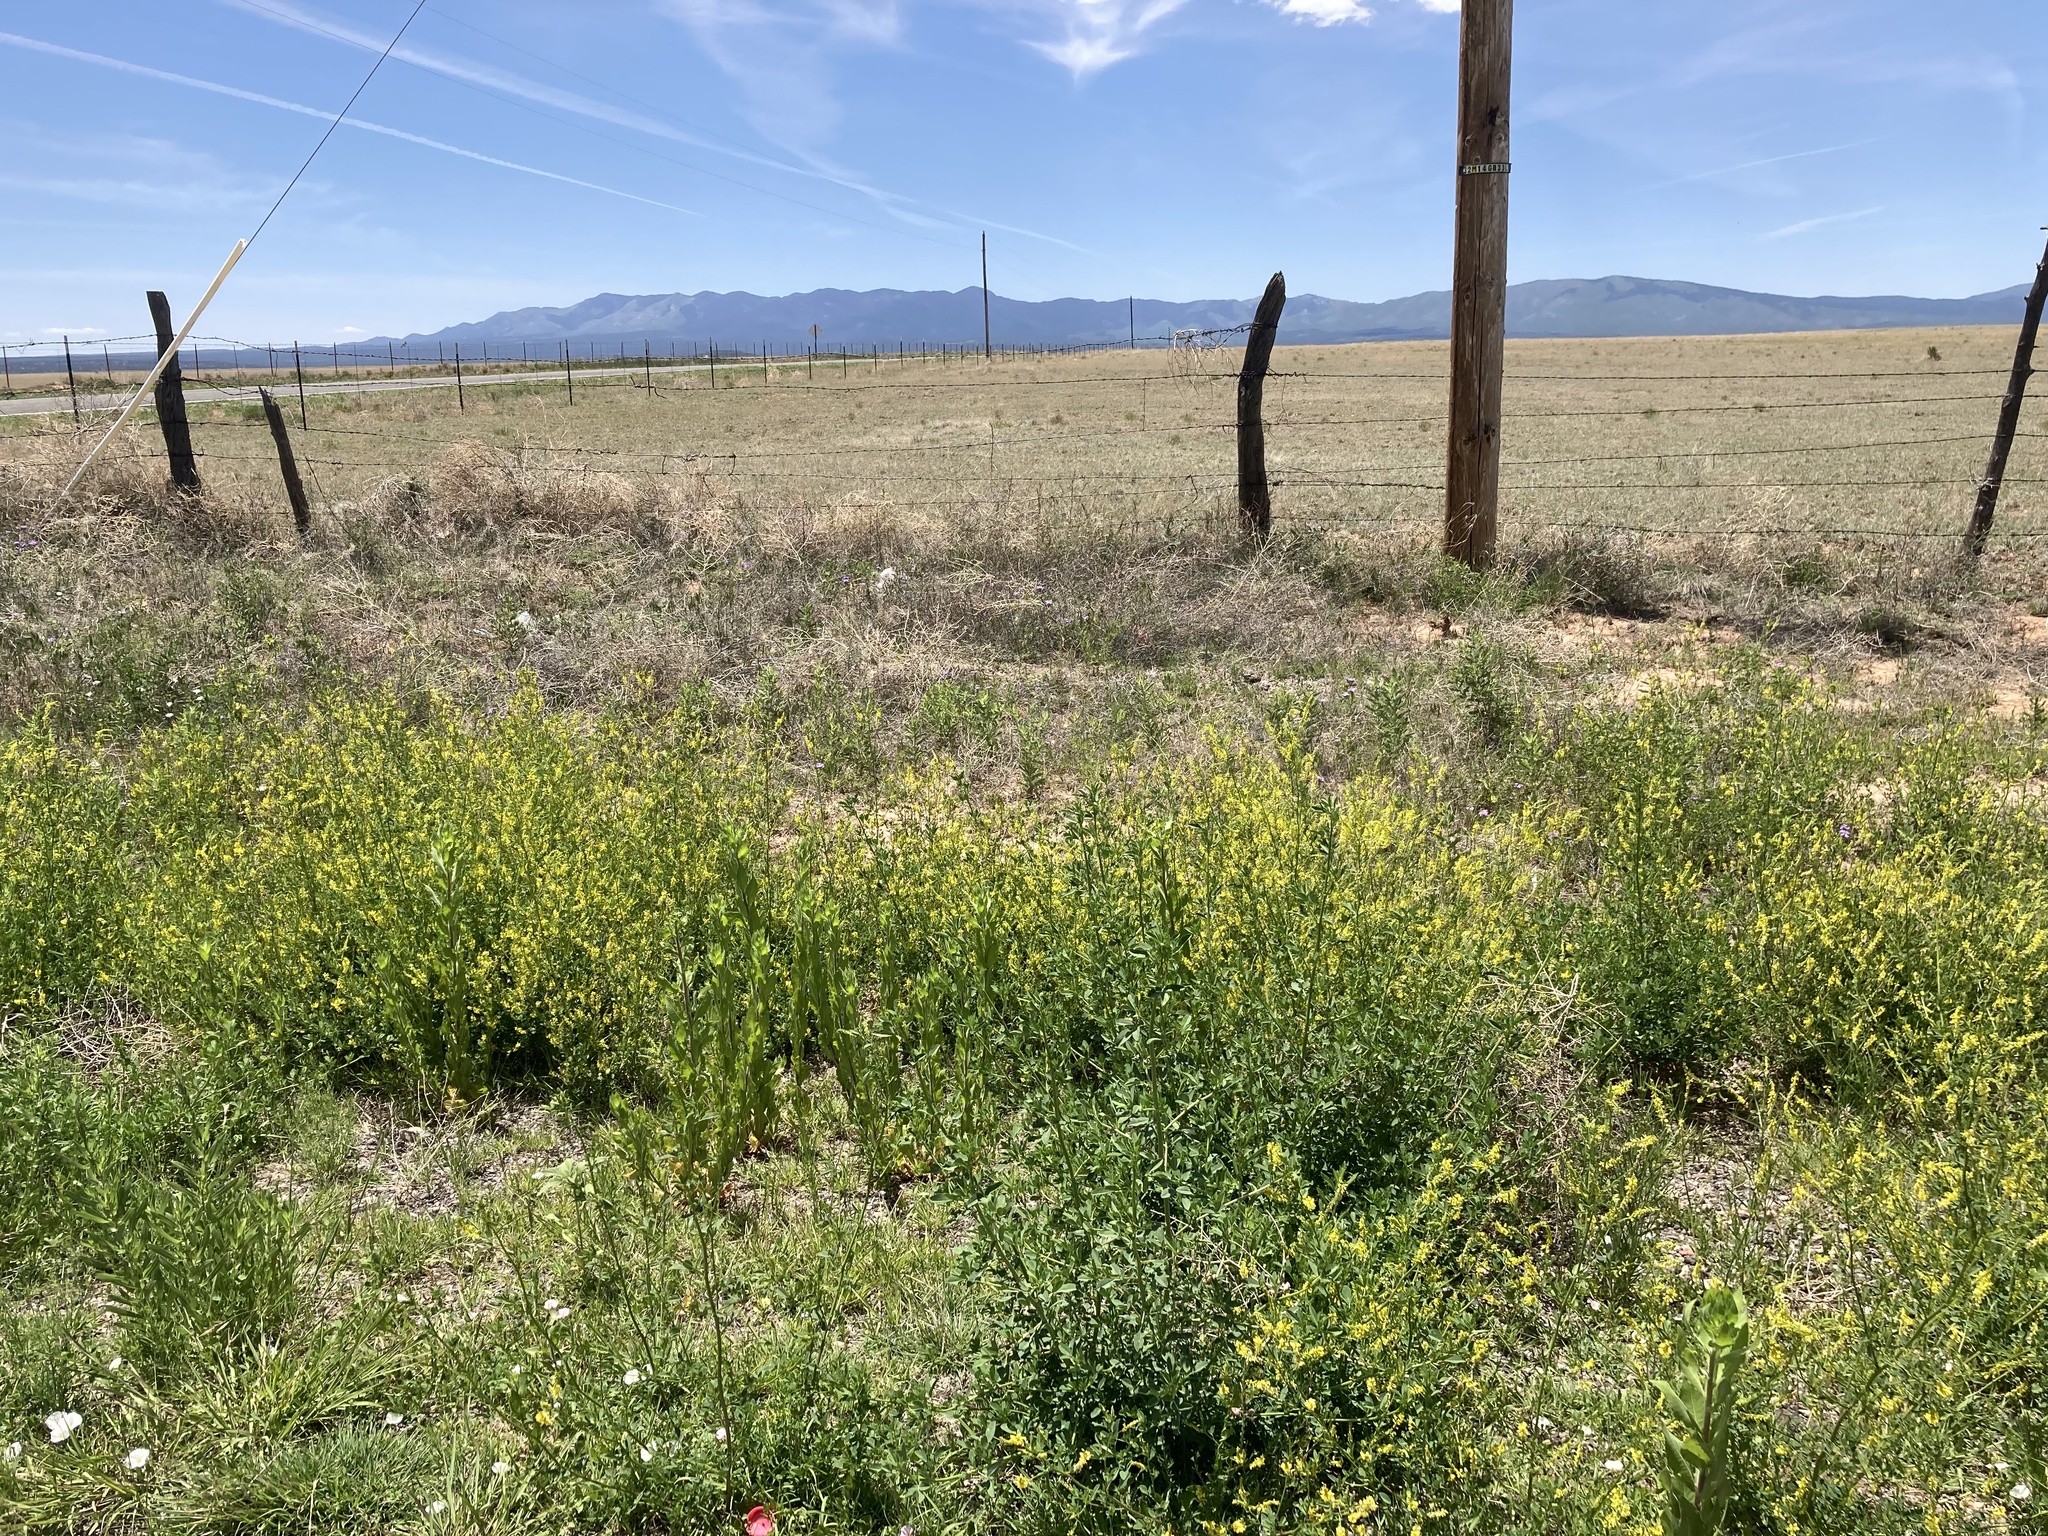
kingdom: Plantae
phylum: Tracheophyta
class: Magnoliopsida
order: Fabales
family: Fabaceae
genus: Melilotus
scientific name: Melilotus officinalis
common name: Sweetclover
